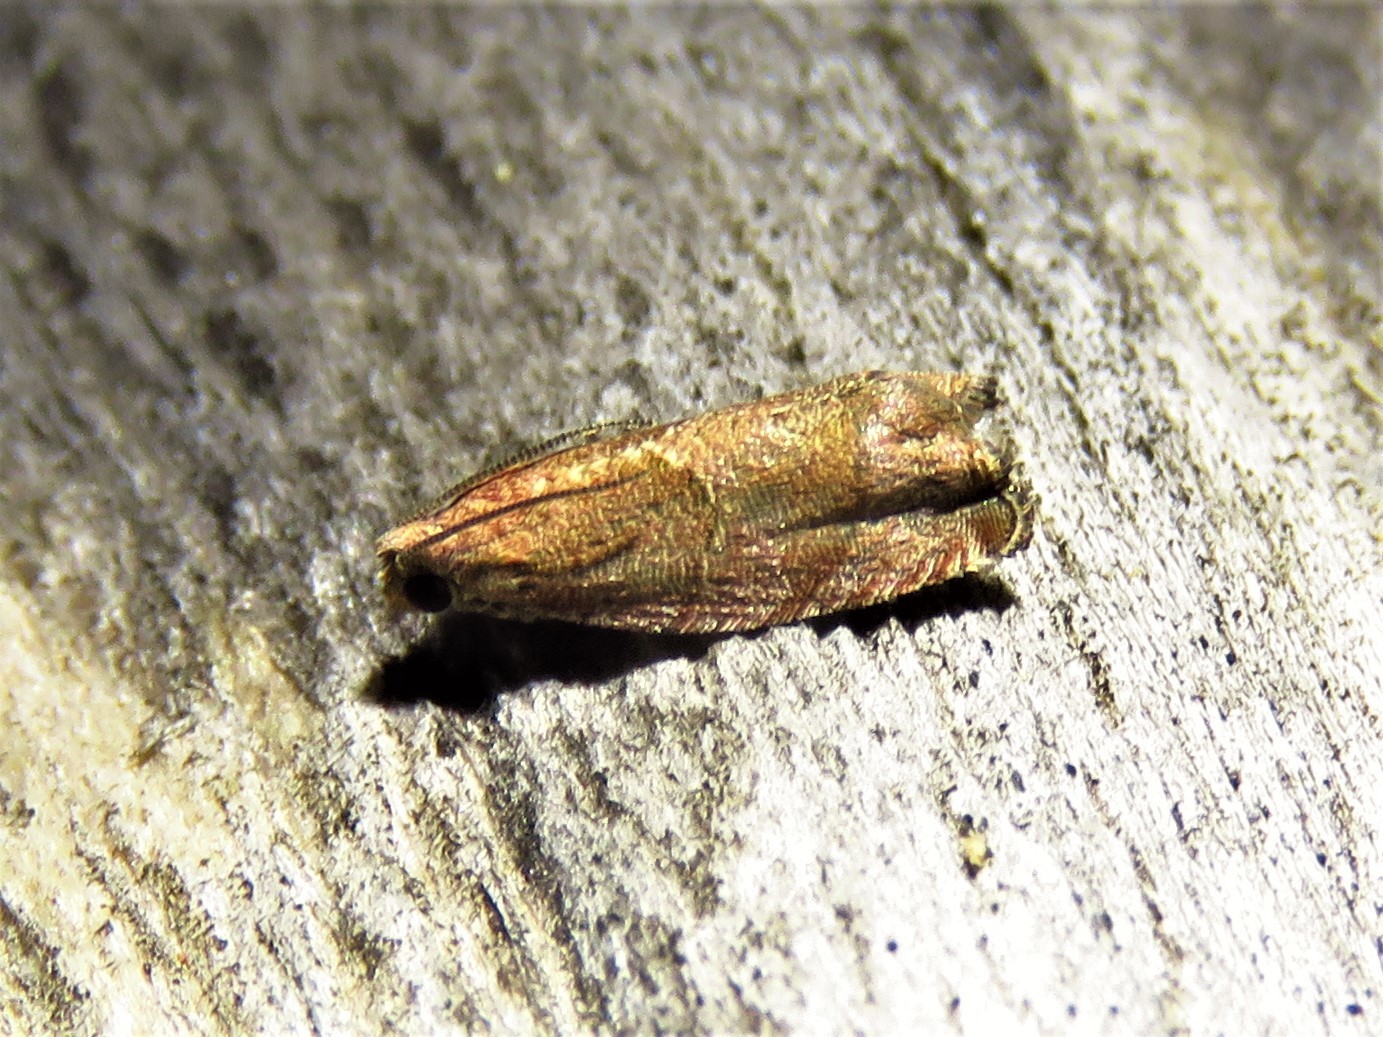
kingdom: Animalia
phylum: Arthropoda
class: Insecta
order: Lepidoptera
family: Tortricidae
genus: Gypsonoma
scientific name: Gypsonoma salicicolana
